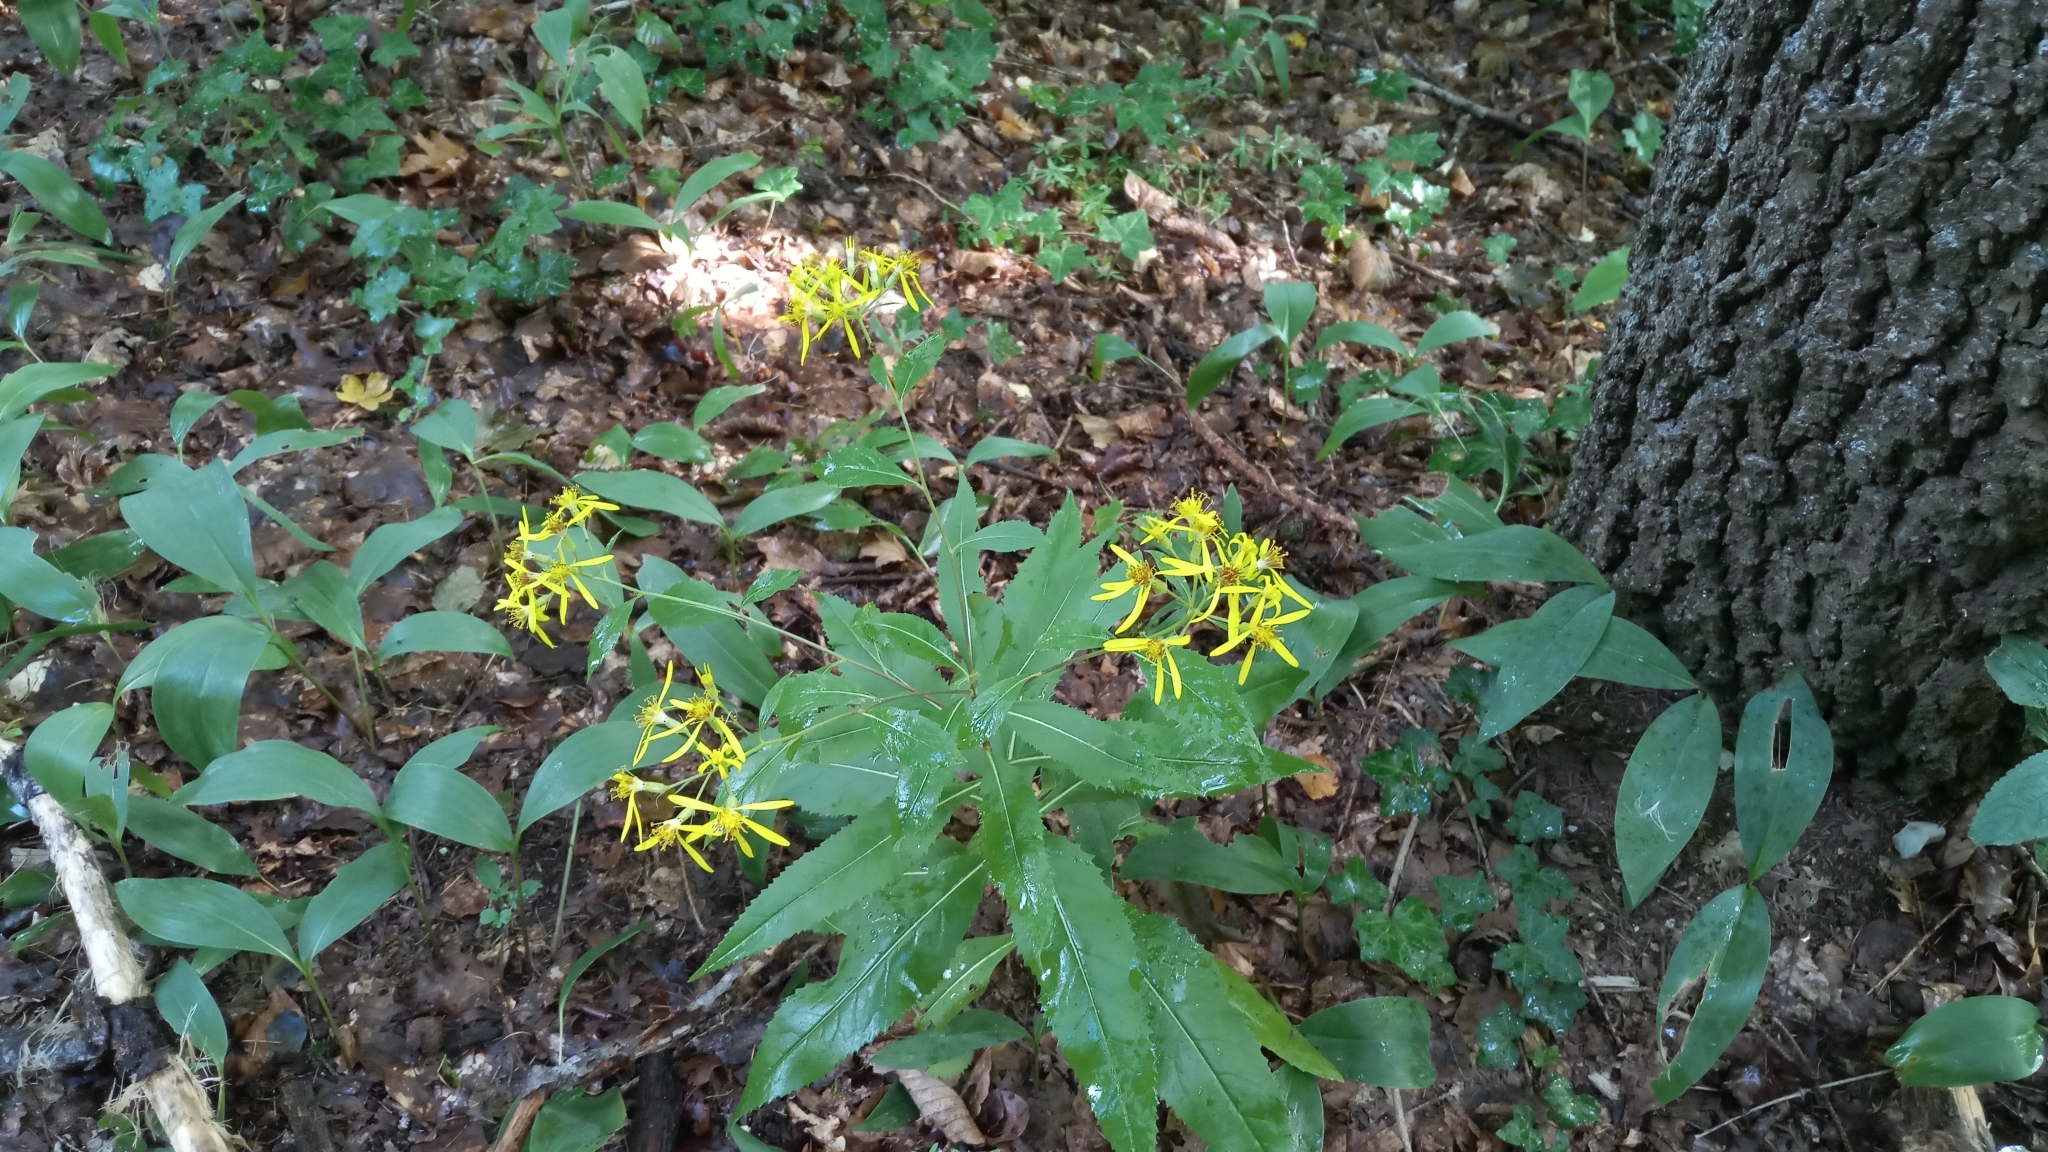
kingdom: Plantae
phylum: Tracheophyta
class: Magnoliopsida
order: Asterales
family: Asteraceae
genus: Senecio
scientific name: Senecio ovatus
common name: Wood ragwort
